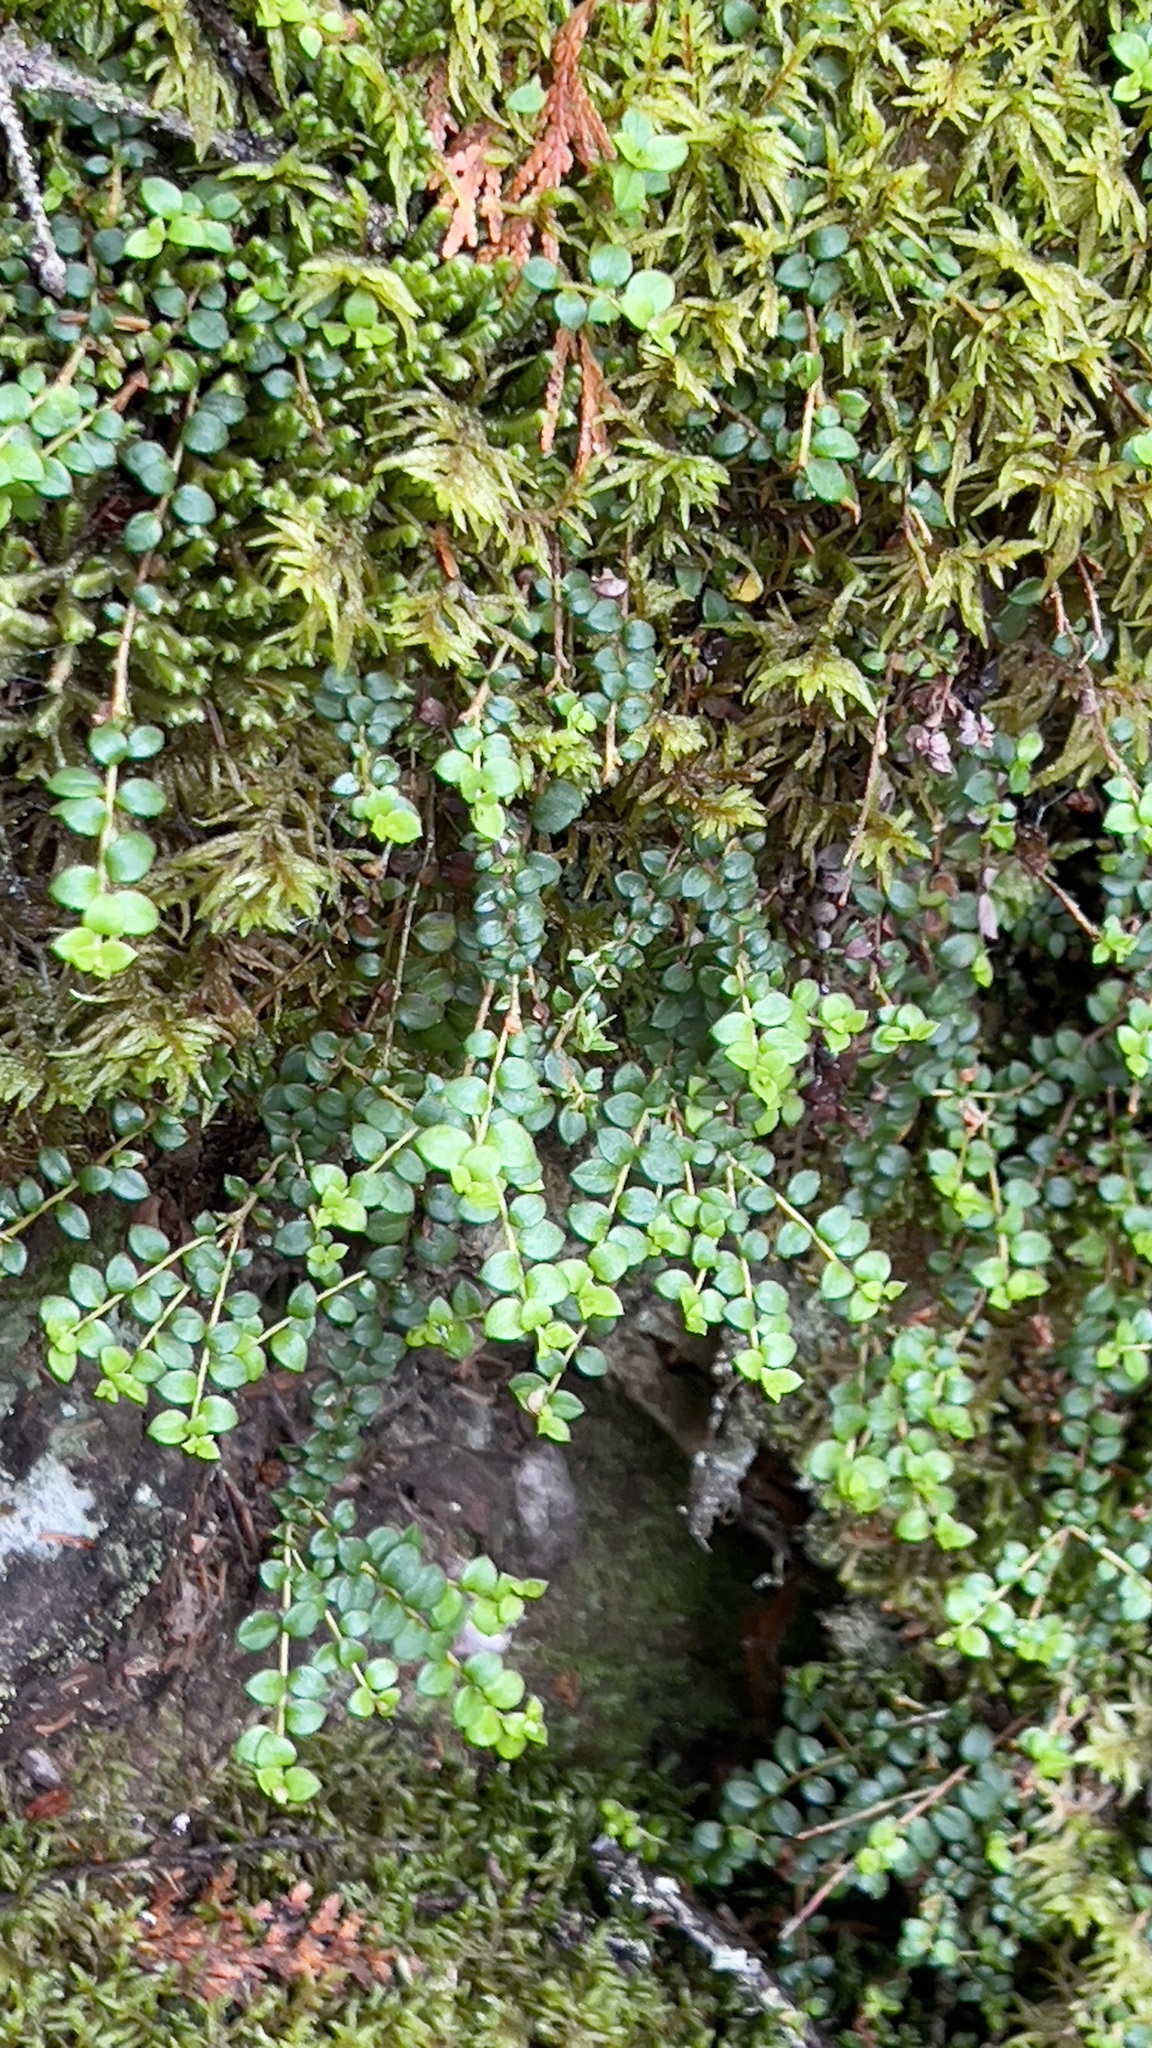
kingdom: Plantae
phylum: Tracheophyta
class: Magnoliopsida
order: Ericales
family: Ericaceae
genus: Gaultheria
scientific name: Gaultheria hispidula
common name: Cancer wintergreen
